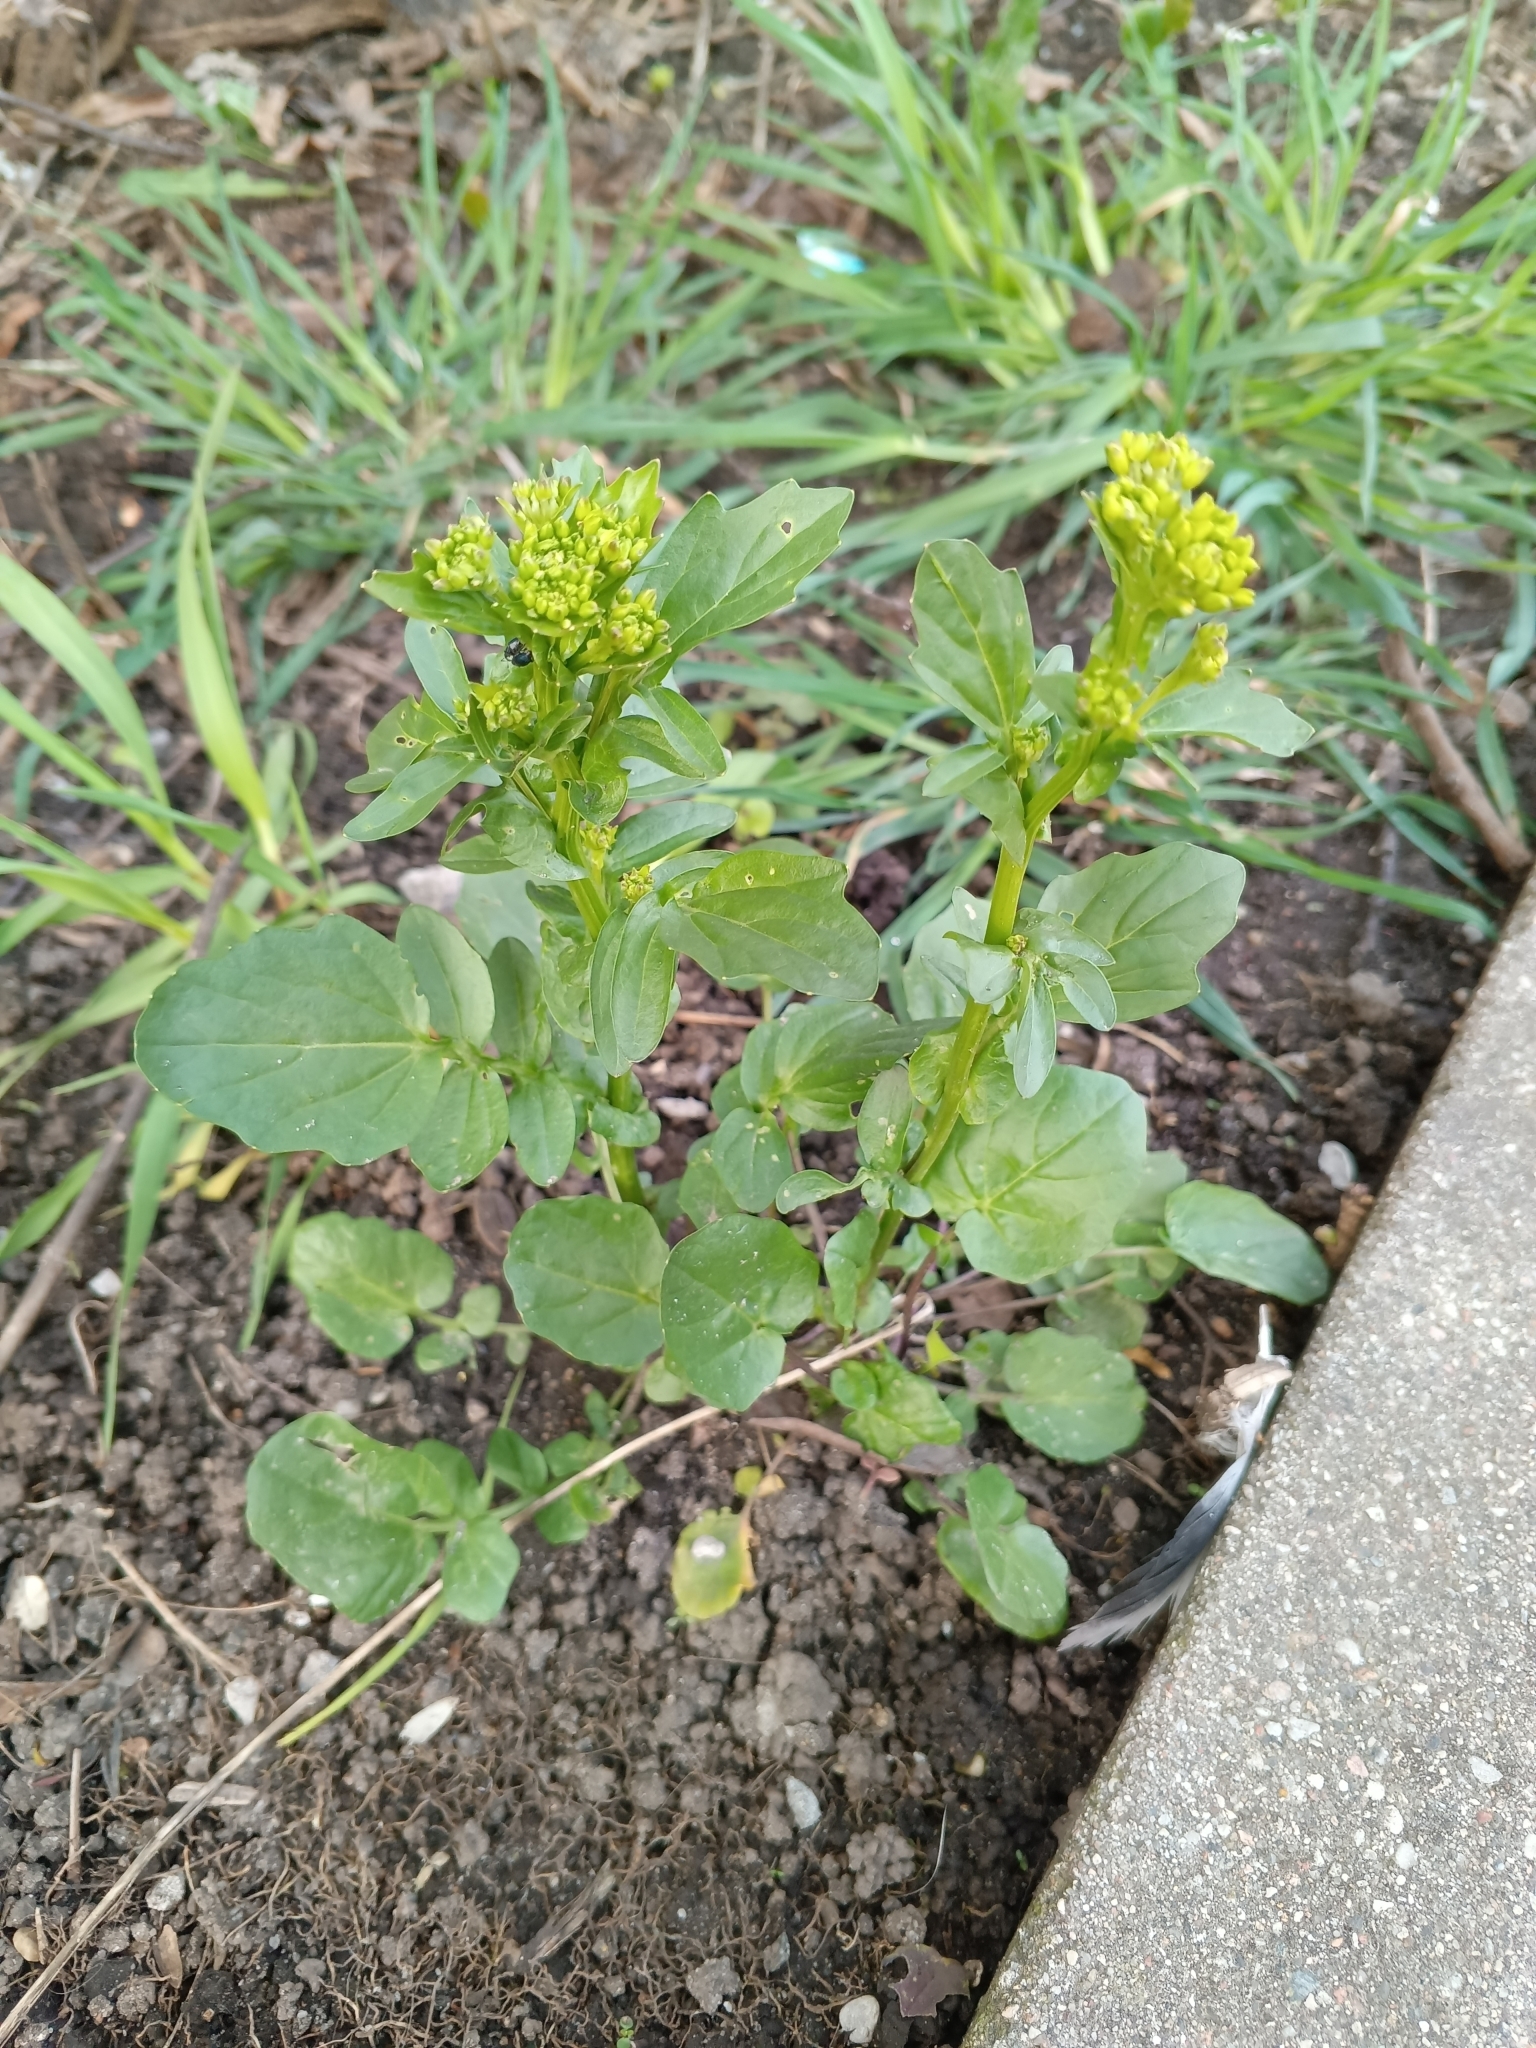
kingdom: Plantae
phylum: Tracheophyta
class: Magnoliopsida
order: Brassicales
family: Brassicaceae
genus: Barbarea
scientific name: Barbarea vulgaris
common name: Cressy-greens
